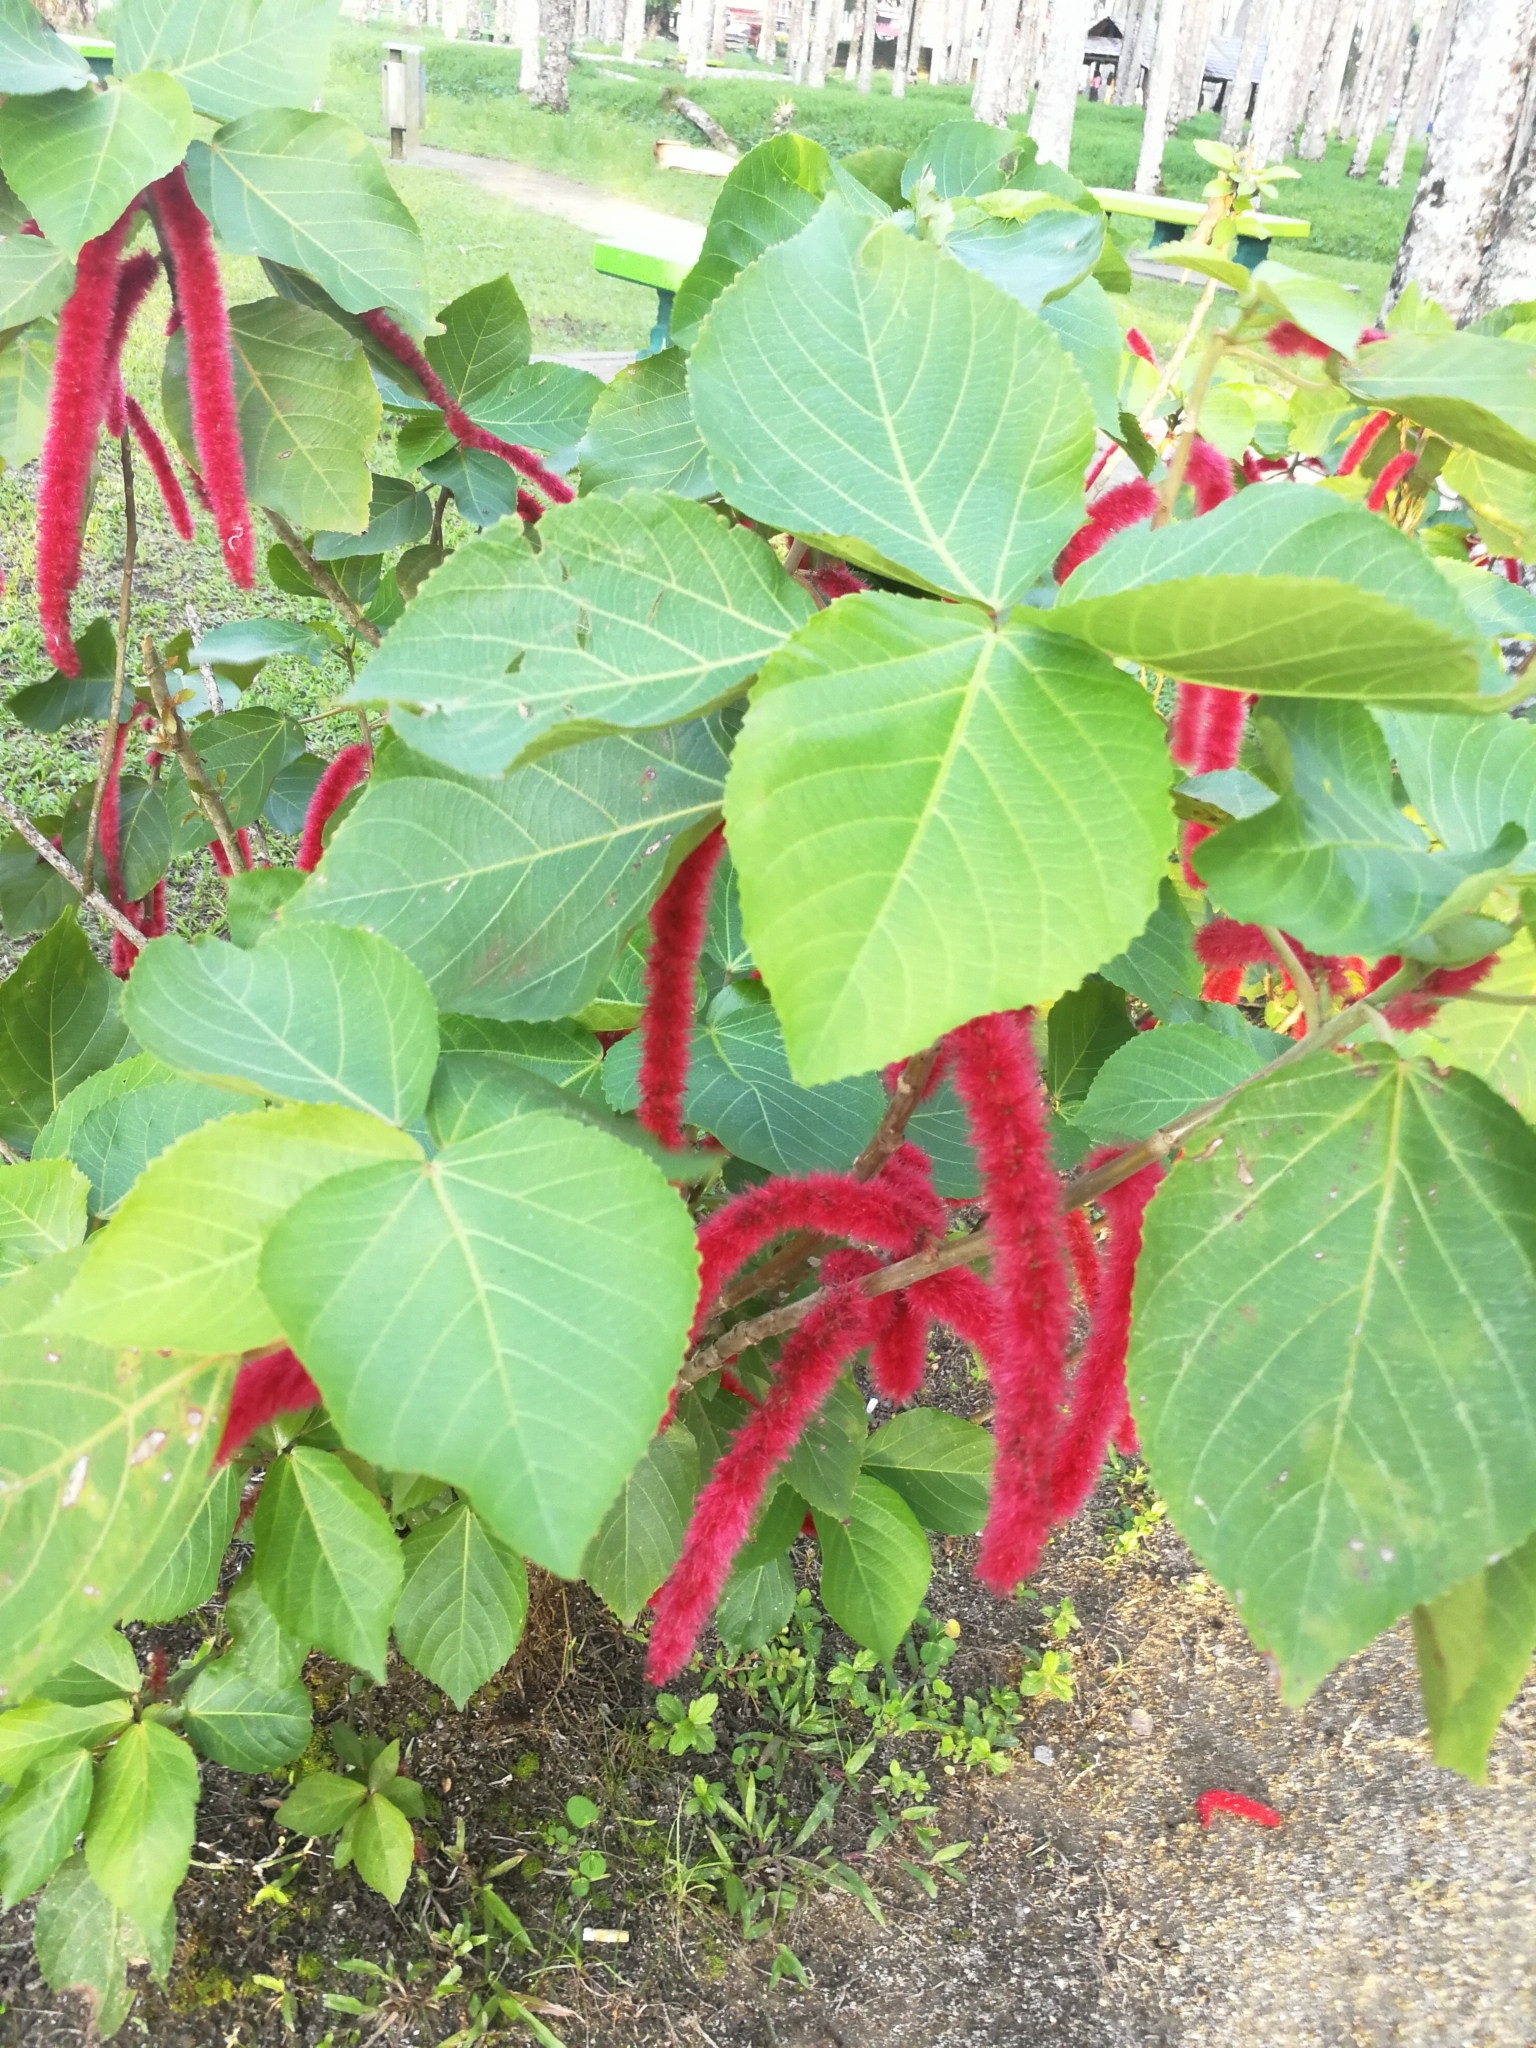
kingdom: Plantae
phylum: Tracheophyta
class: Magnoliopsida
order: Malpighiales
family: Euphorbiaceae
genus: Acalypha
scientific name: Acalypha hispida
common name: Chenilleplant
